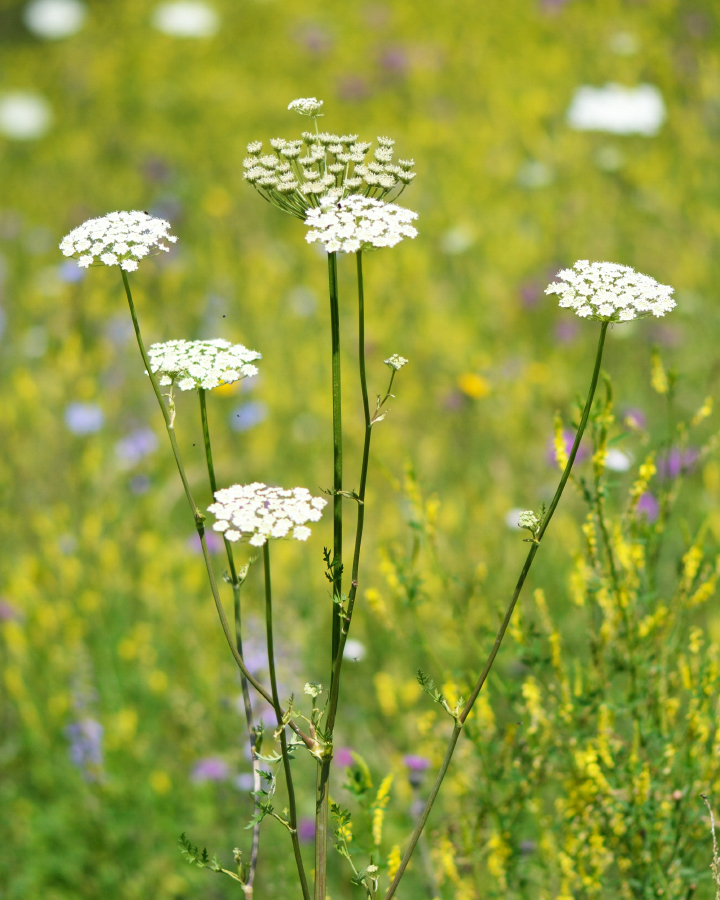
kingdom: Plantae
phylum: Tracheophyta
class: Magnoliopsida
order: Apiales
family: Apiaceae
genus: Seseli
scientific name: Seseli libanotis
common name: Mooncarrot
